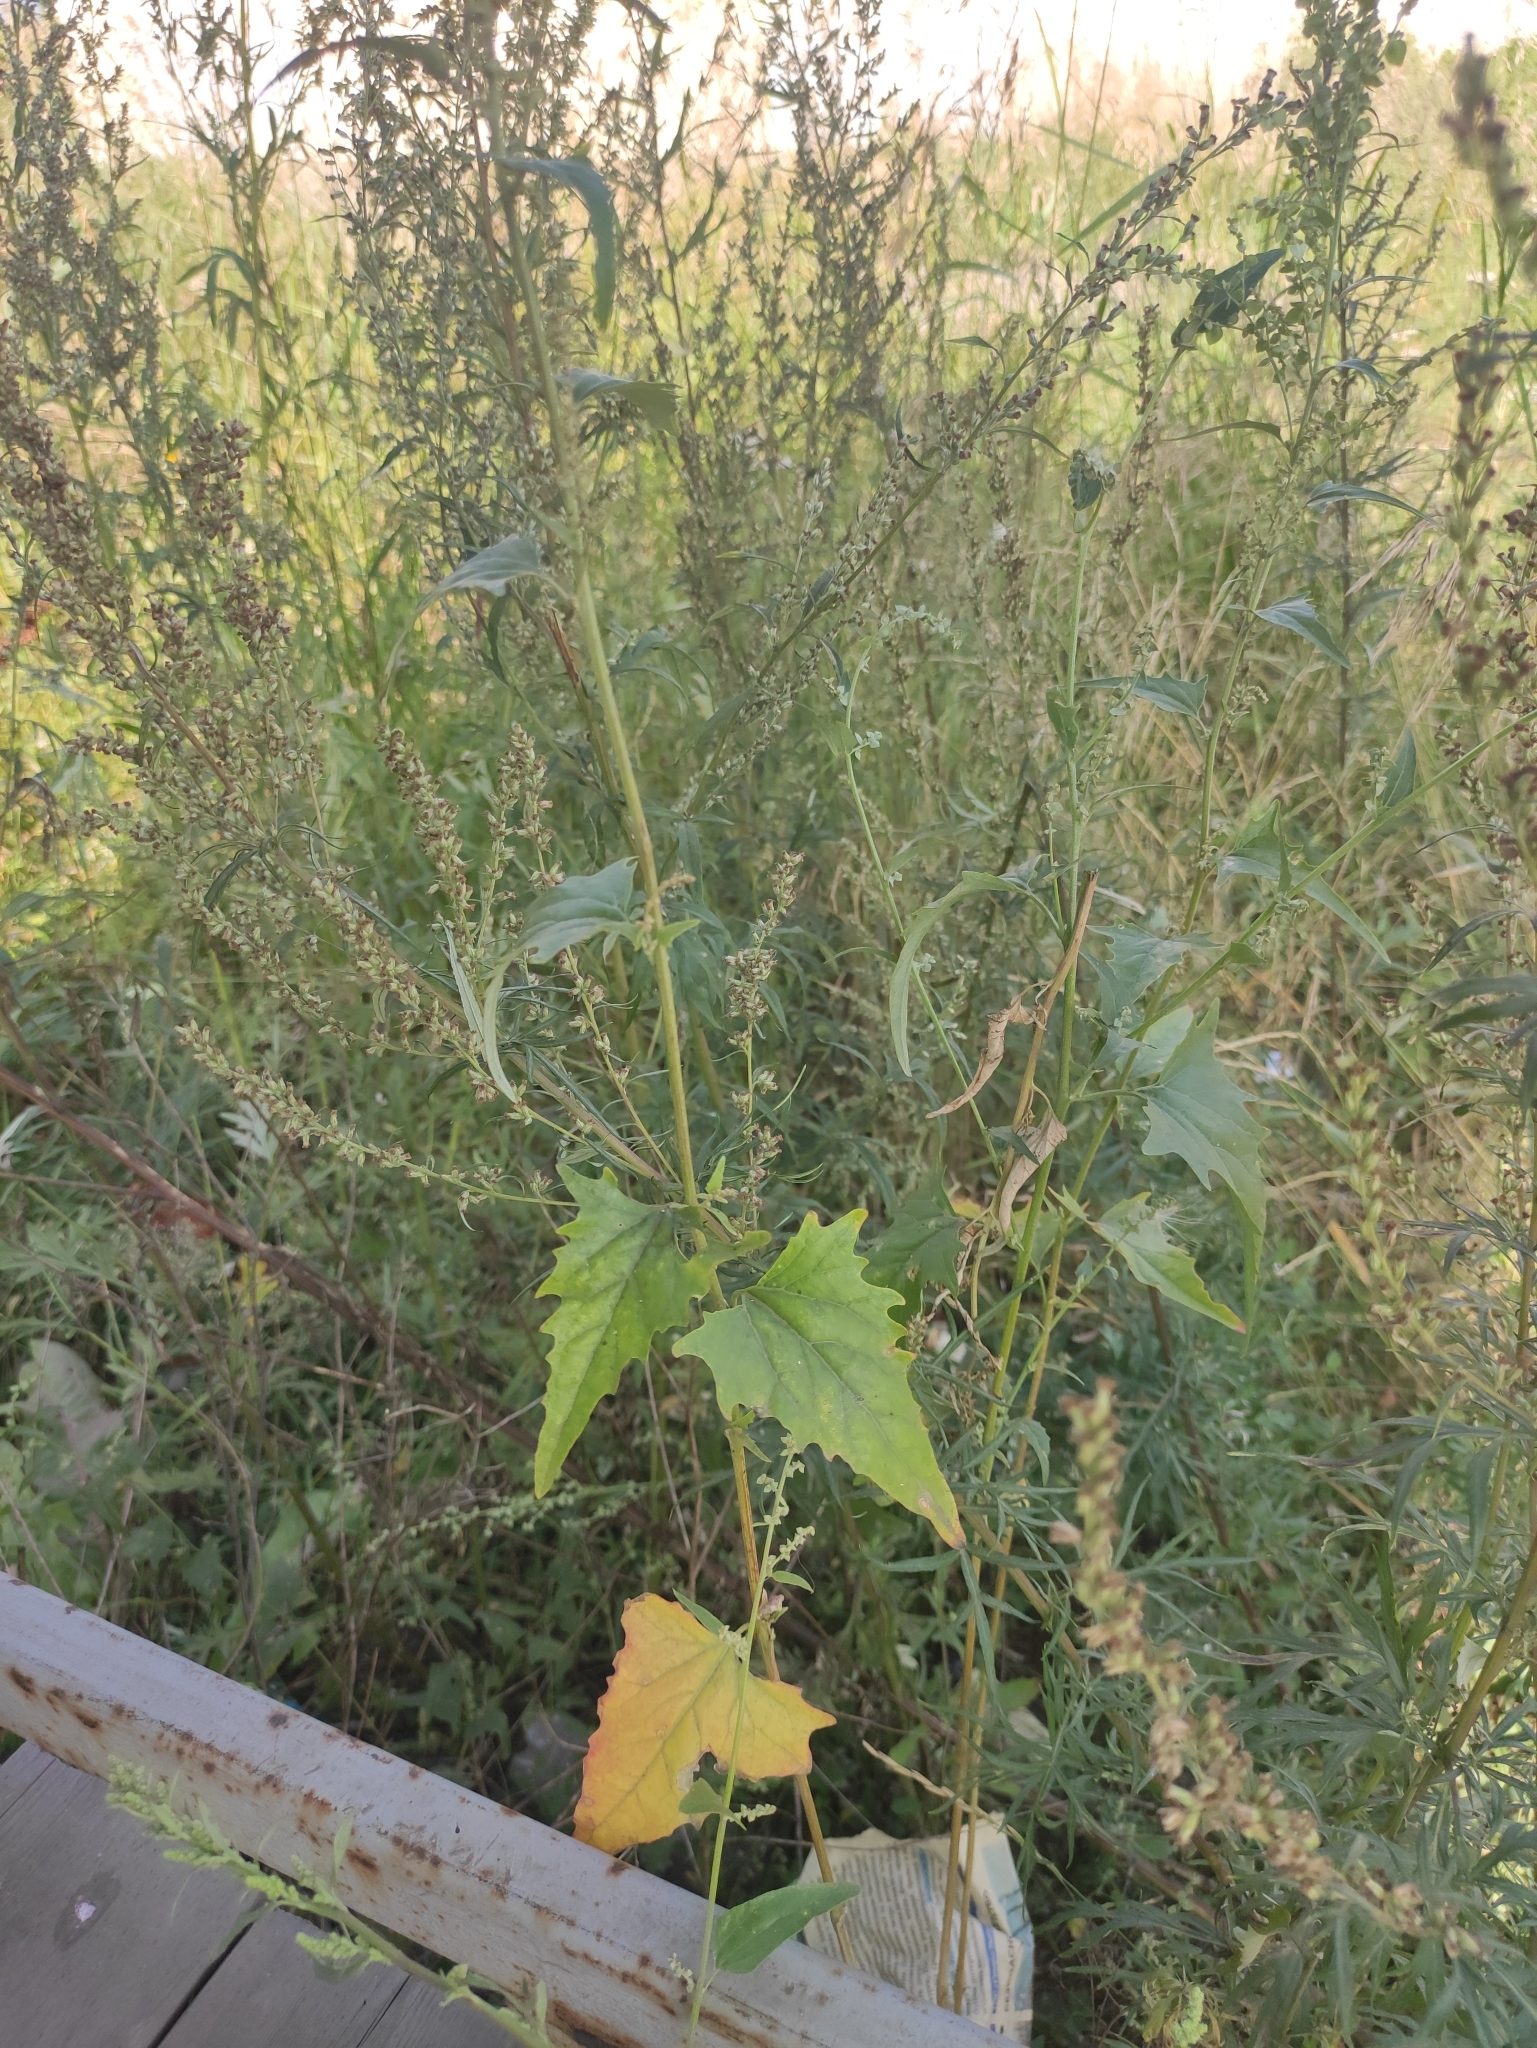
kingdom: Plantae
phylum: Tracheophyta
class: Magnoliopsida
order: Caryophyllales
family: Amaranthaceae
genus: Atriplex
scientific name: Atriplex sagittata
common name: Purple orache
